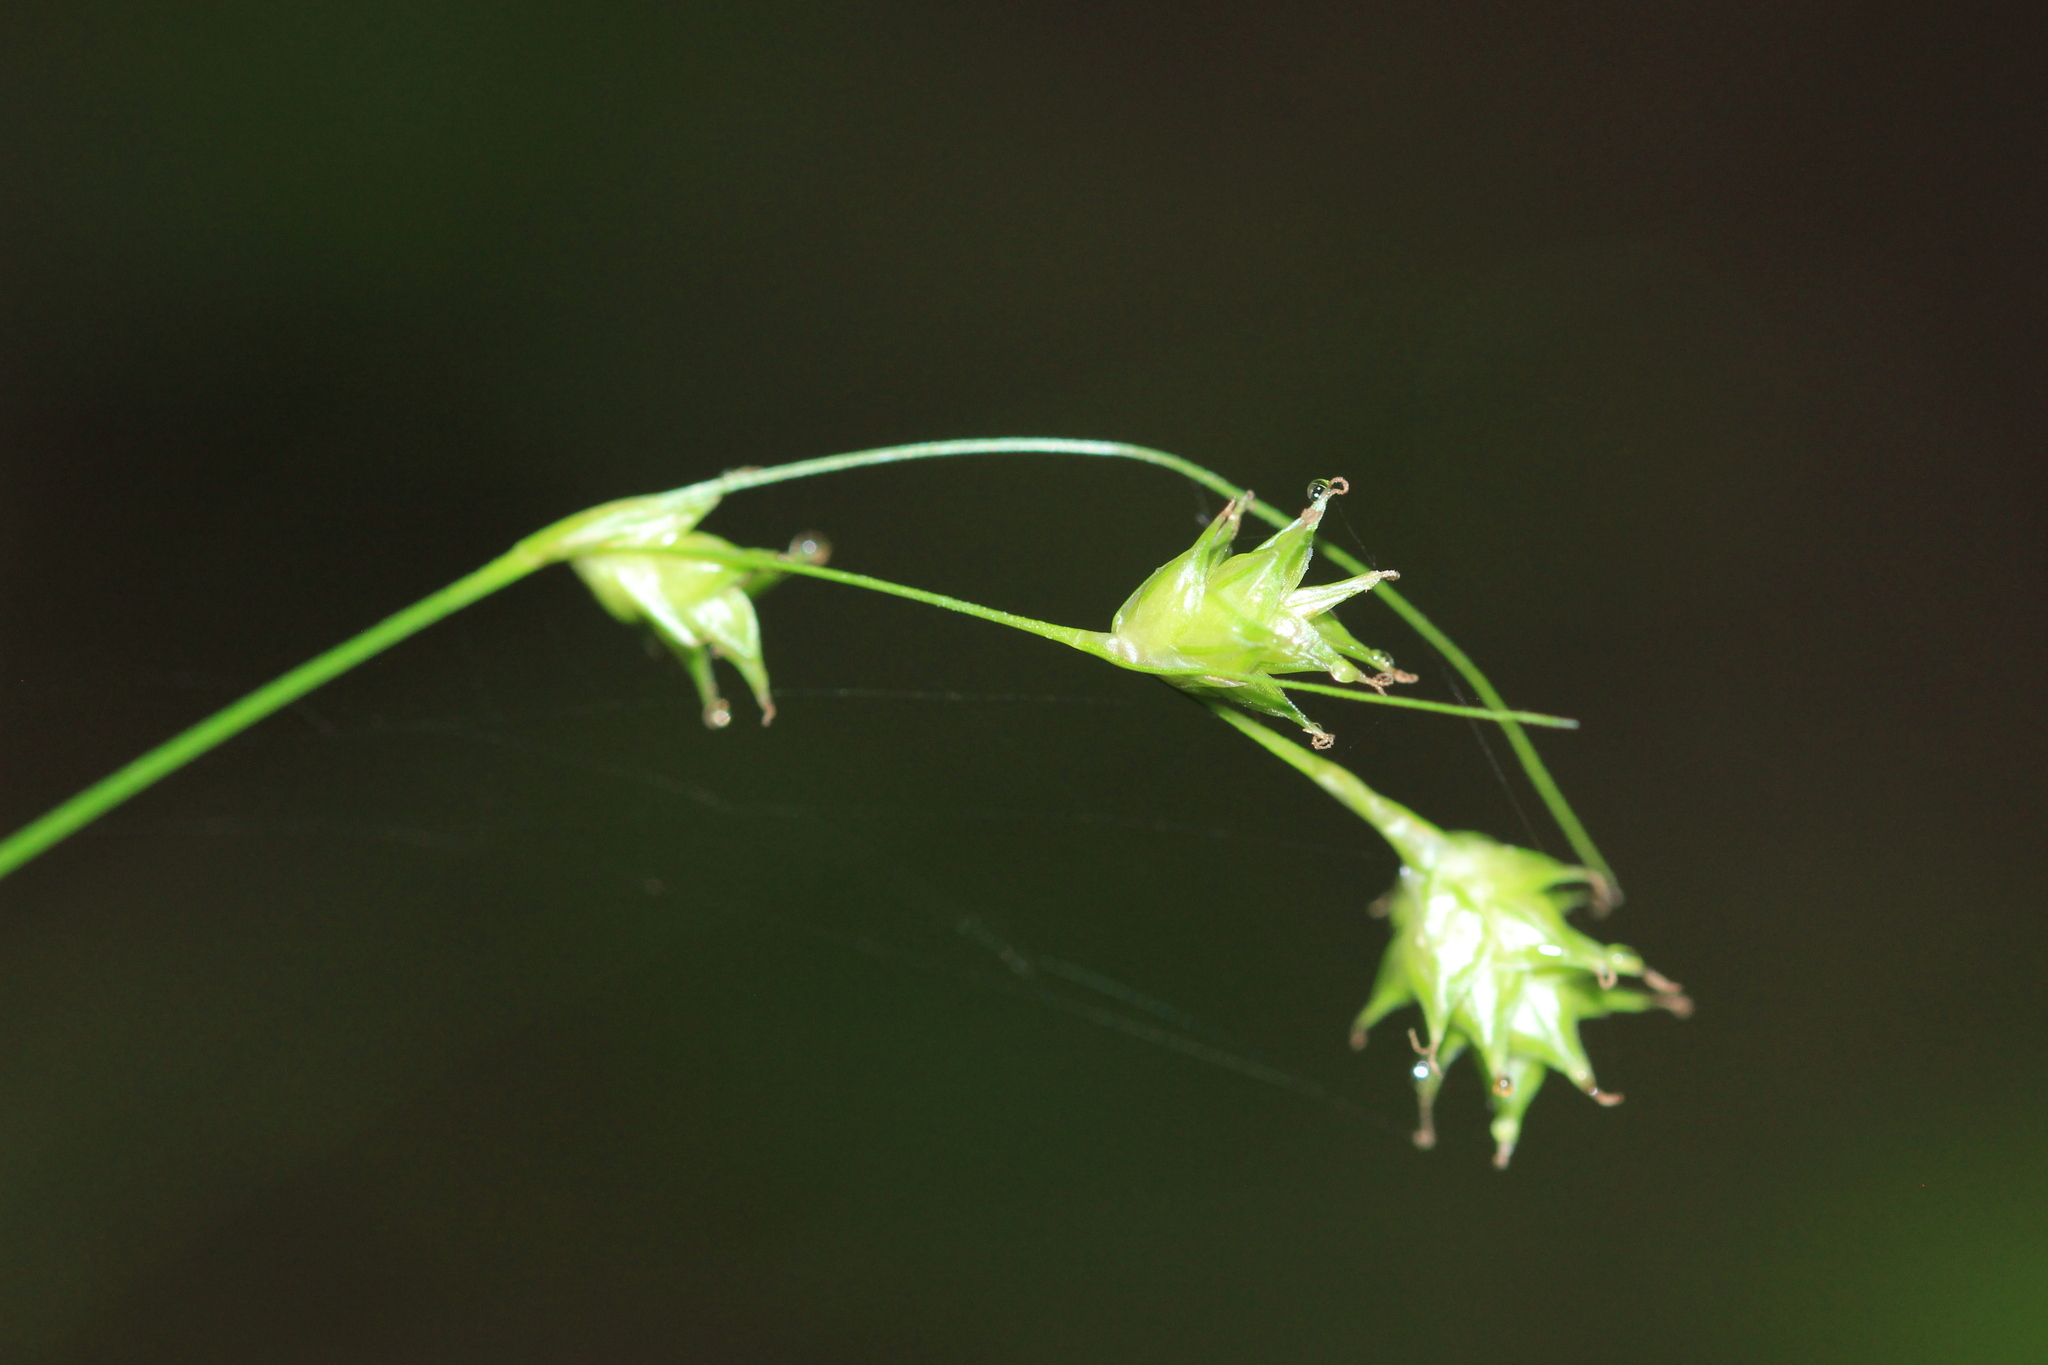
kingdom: Plantae
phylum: Tracheophyta
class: Liliopsida
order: Poales
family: Cyperaceae
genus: Carex
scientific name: Carex tenera
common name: Broad-fruited sedge
